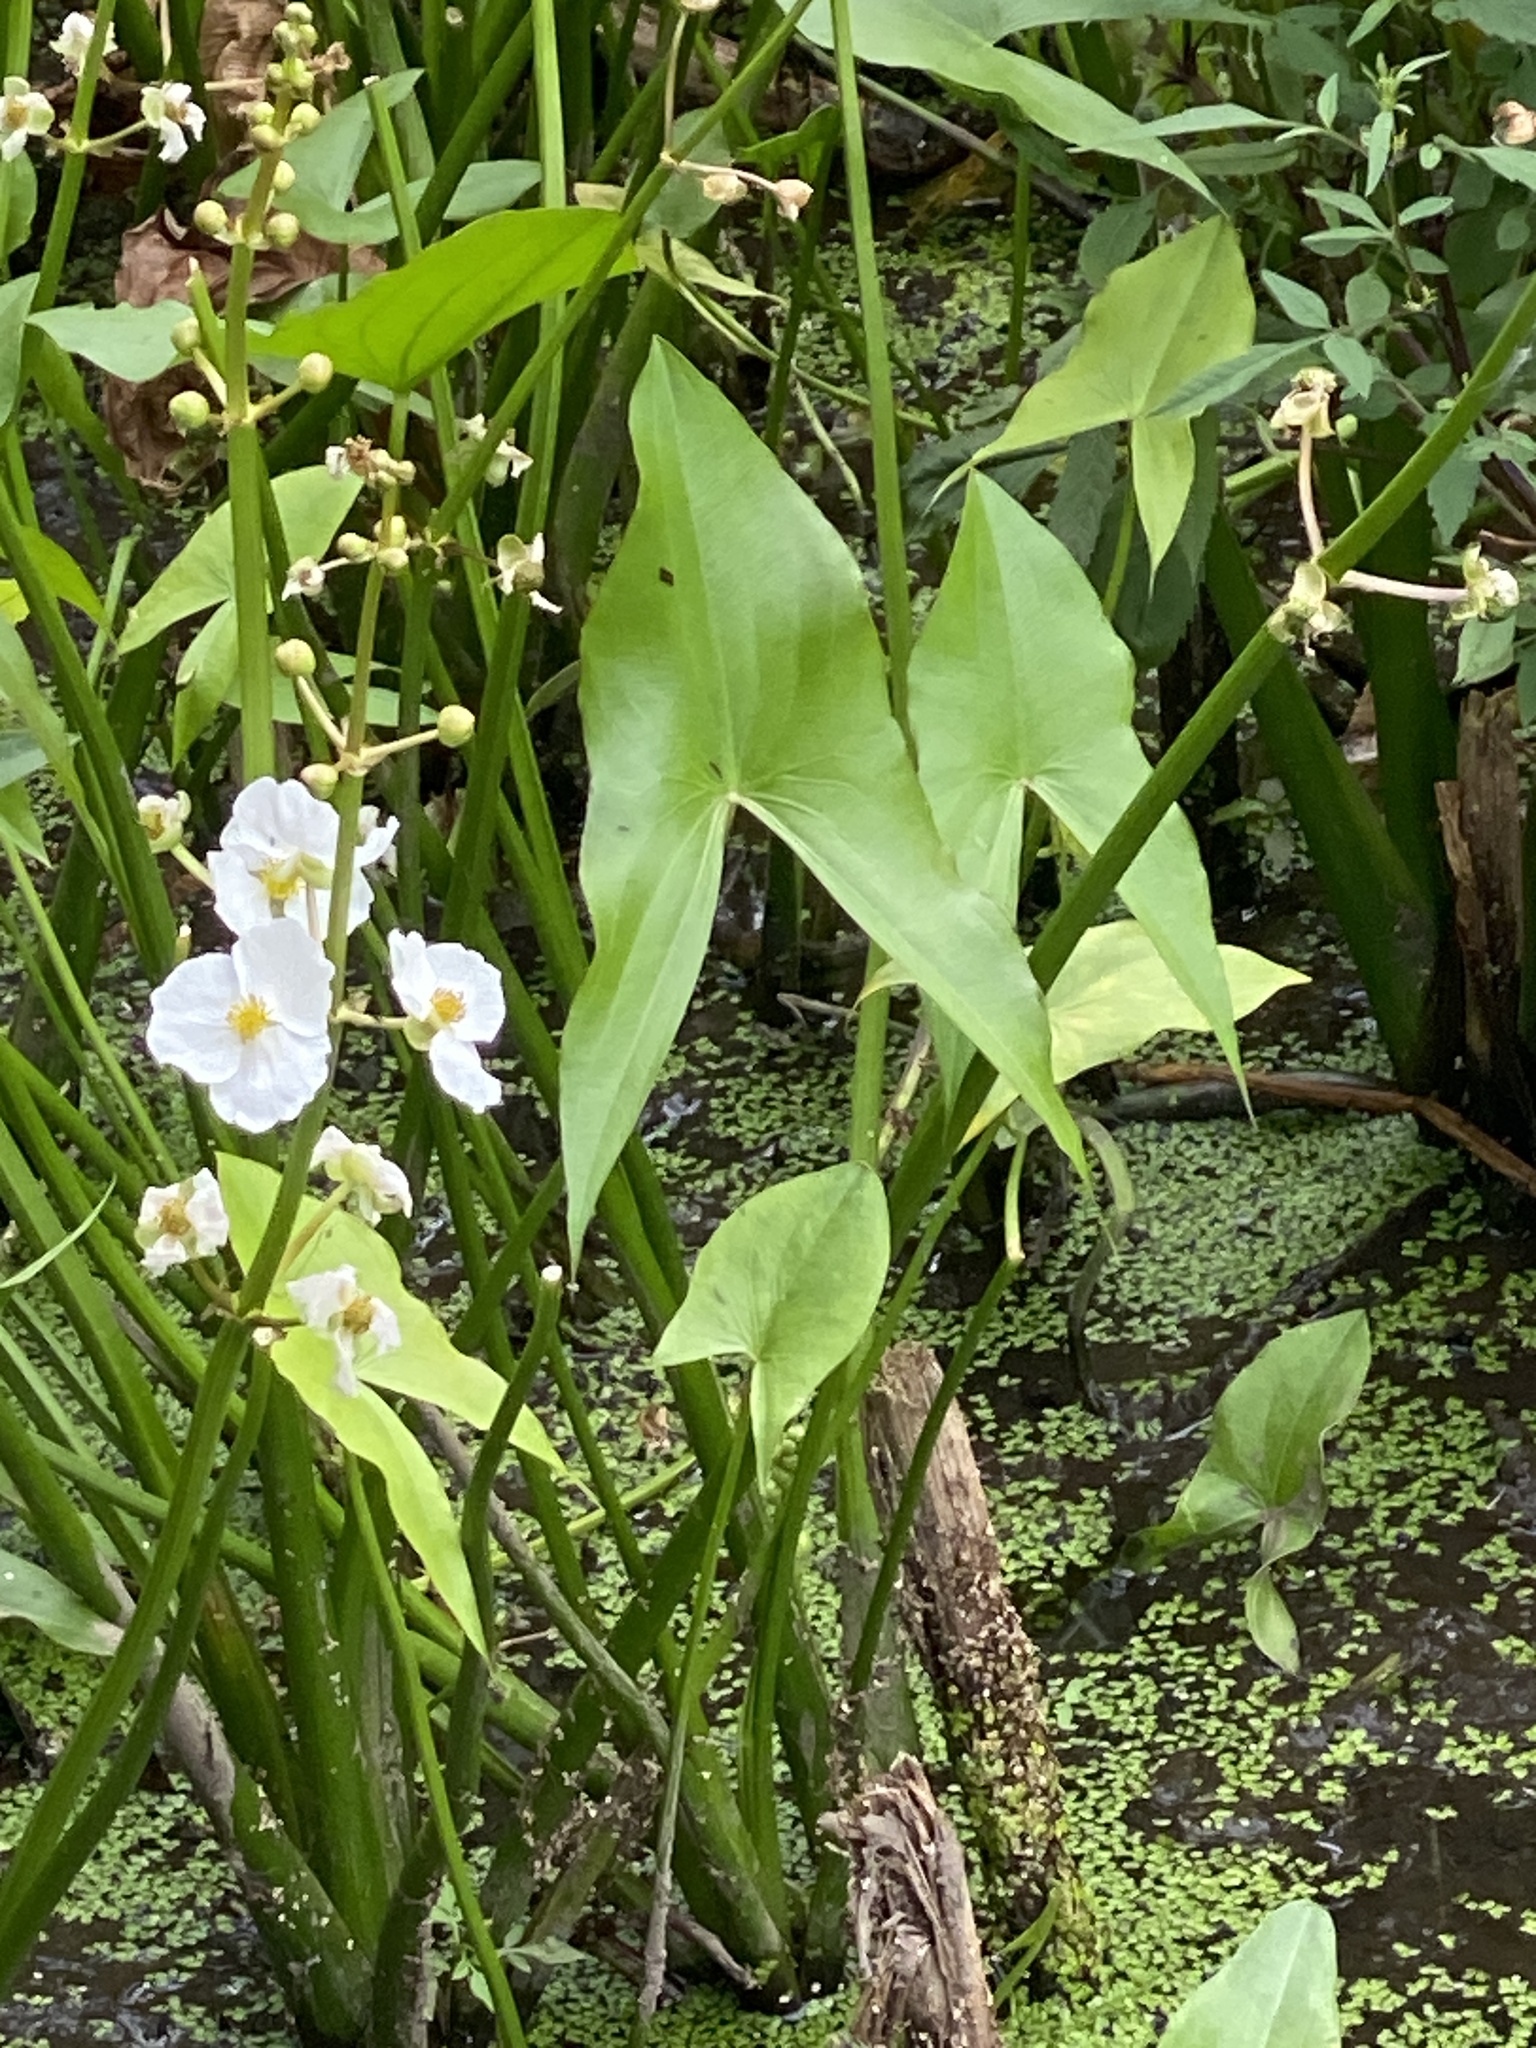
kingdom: Plantae
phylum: Tracheophyta
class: Liliopsida
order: Alismatales
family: Alismataceae
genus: Sagittaria
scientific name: Sagittaria latifolia
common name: Duck-potato
